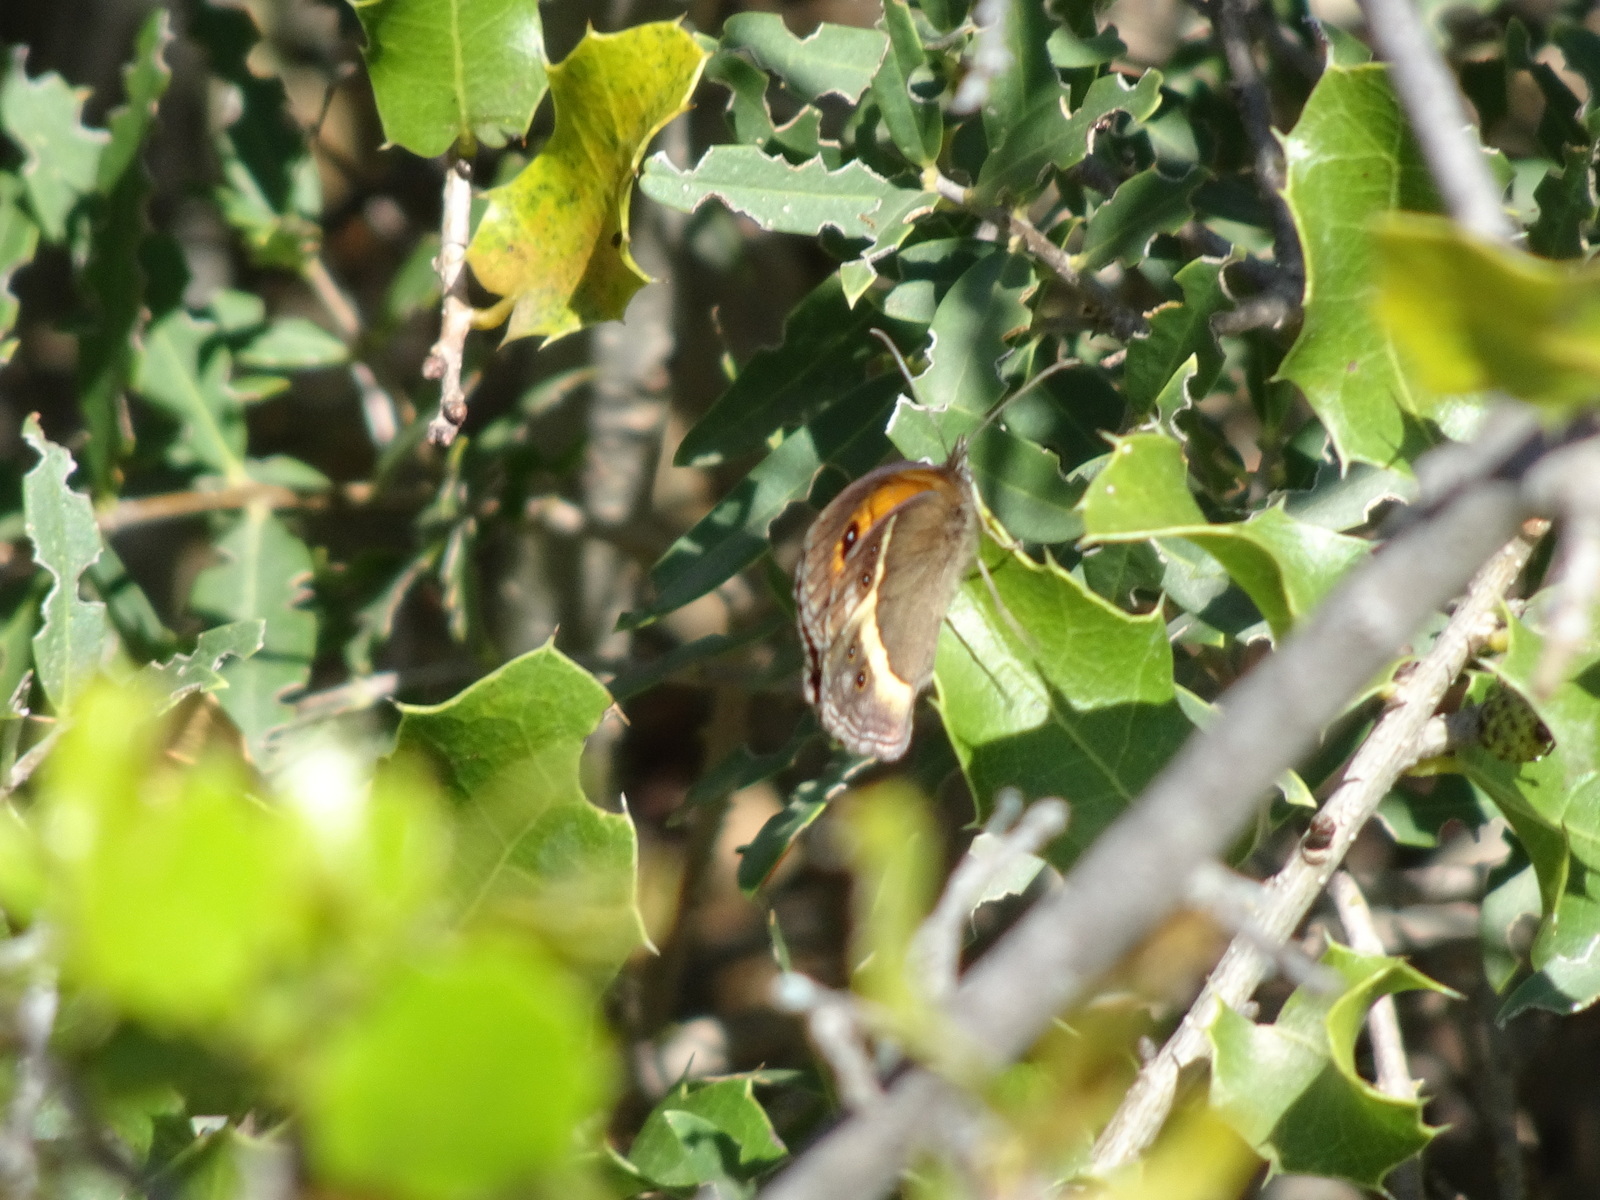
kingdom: Animalia
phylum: Arthropoda
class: Insecta
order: Lepidoptera
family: Nymphalidae
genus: Pyronia
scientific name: Pyronia bathseba
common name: Spanish gatekeeper
